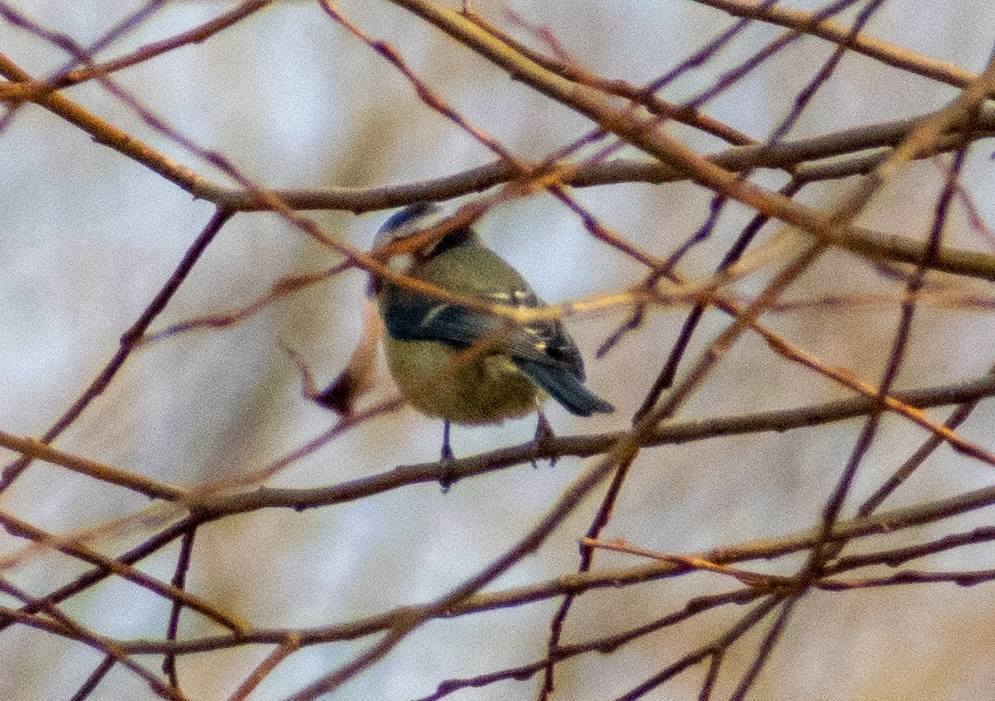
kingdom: Animalia
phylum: Chordata
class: Aves
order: Passeriformes
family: Paridae
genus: Cyanistes
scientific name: Cyanistes caeruleus
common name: Eurasian blue tit
